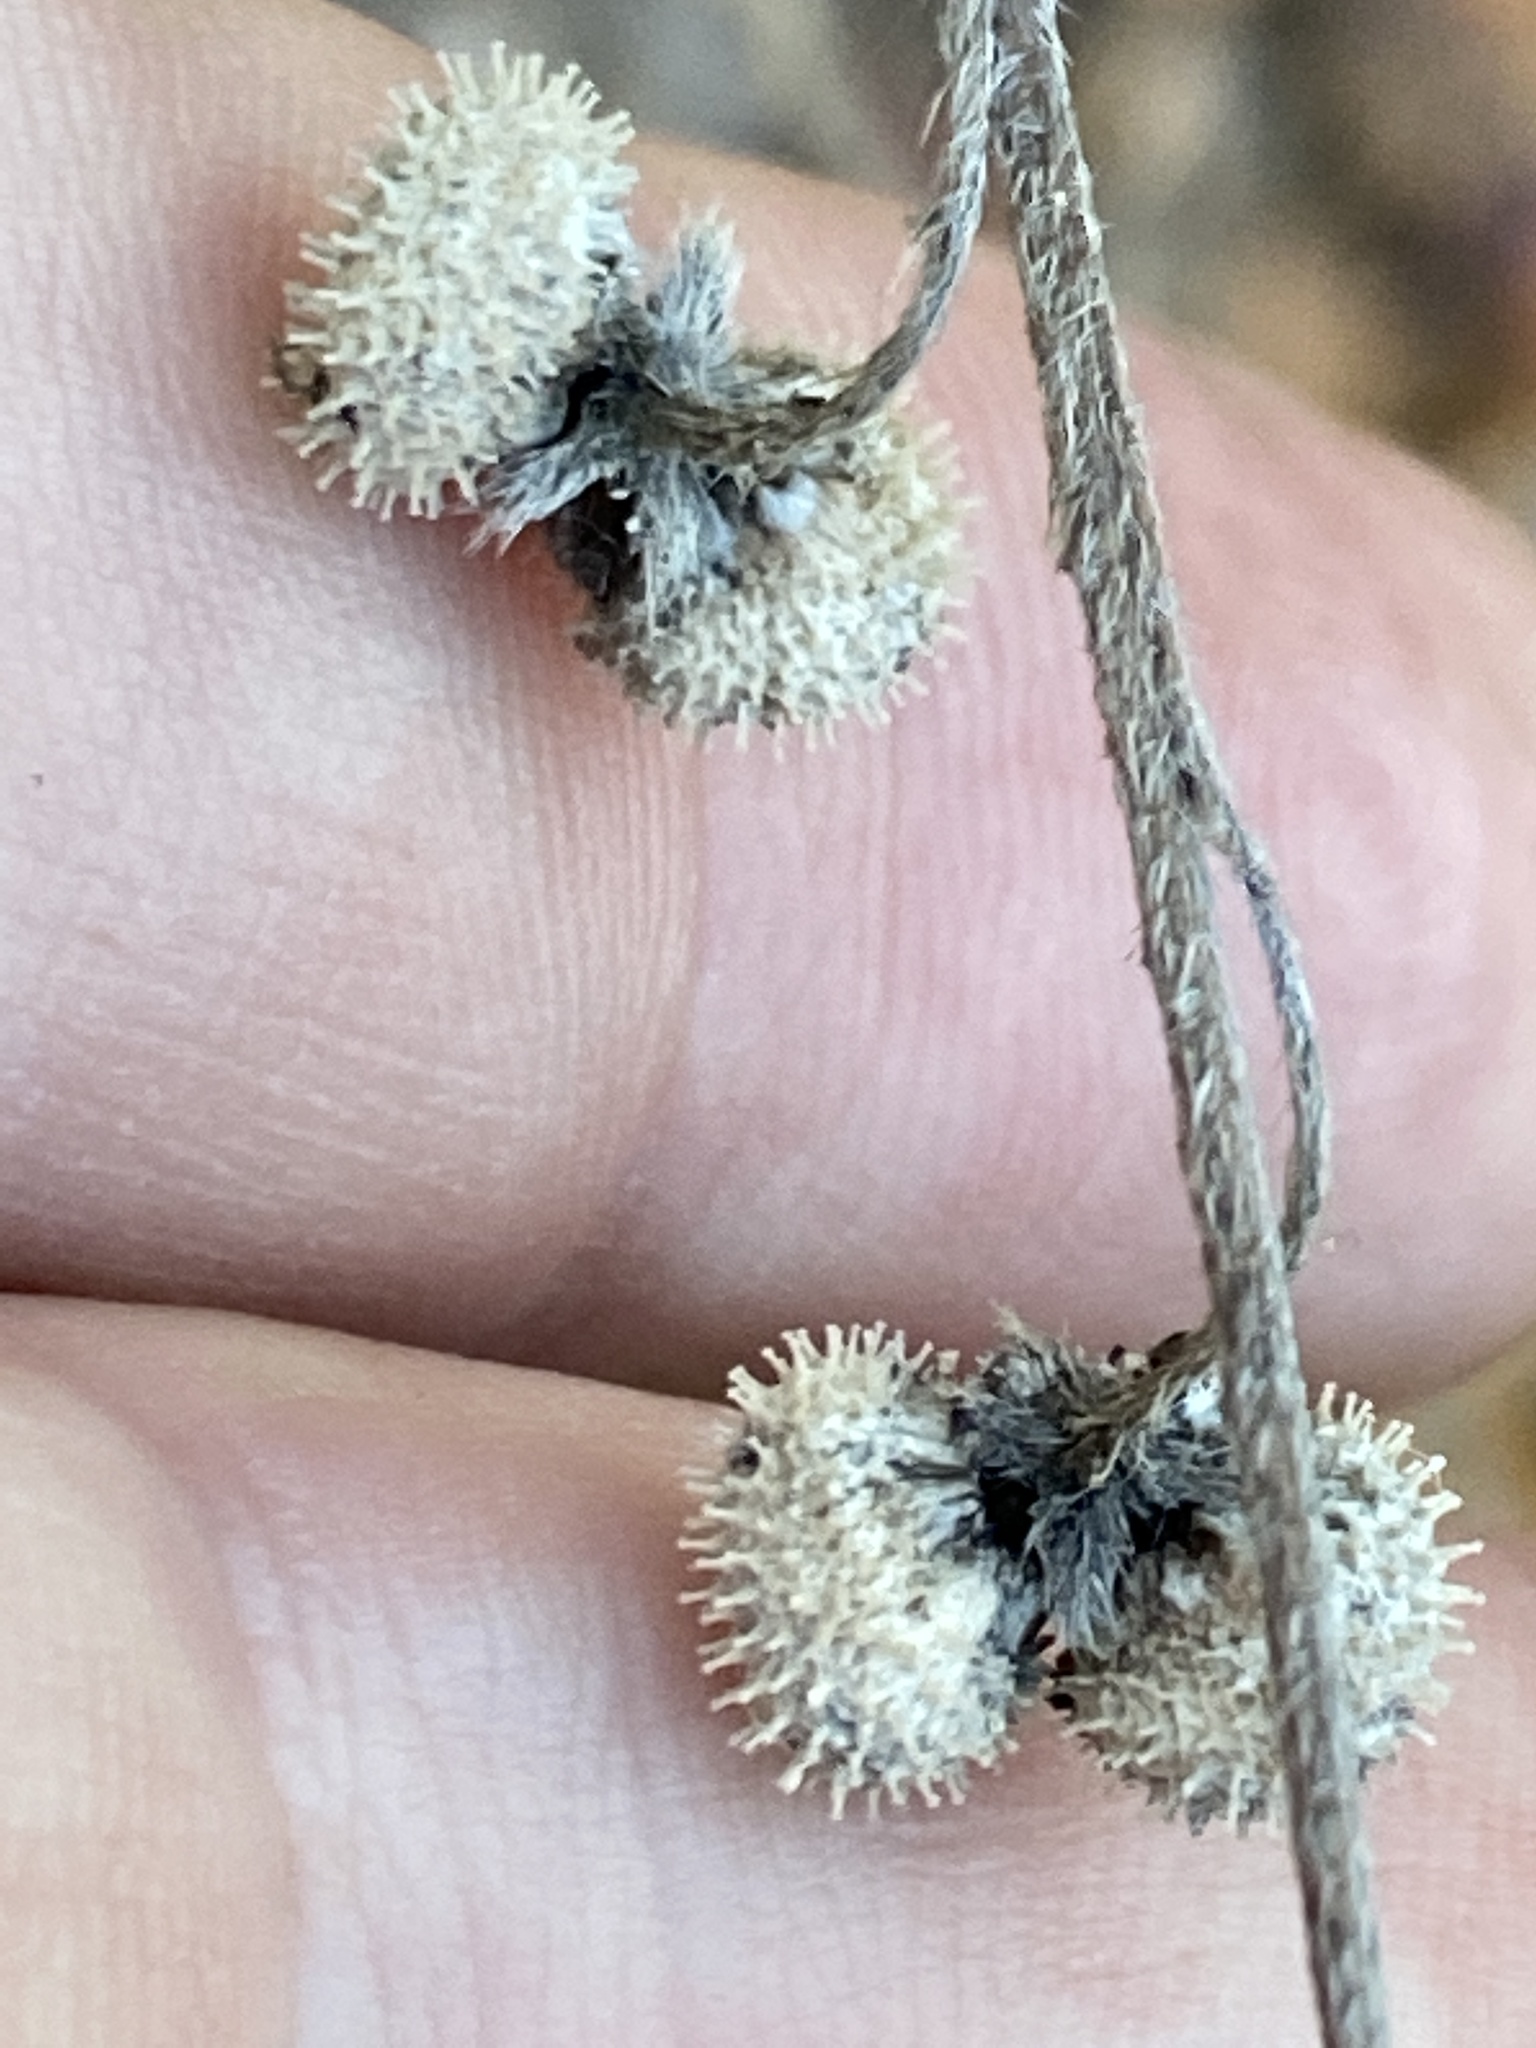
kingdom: Plantae
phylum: Tracheophyta
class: Magnoliopsida
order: Boraginales
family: Boraginaceae
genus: Andersonglossum
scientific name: Andersonglossum virginianum
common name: Wild comfrey
